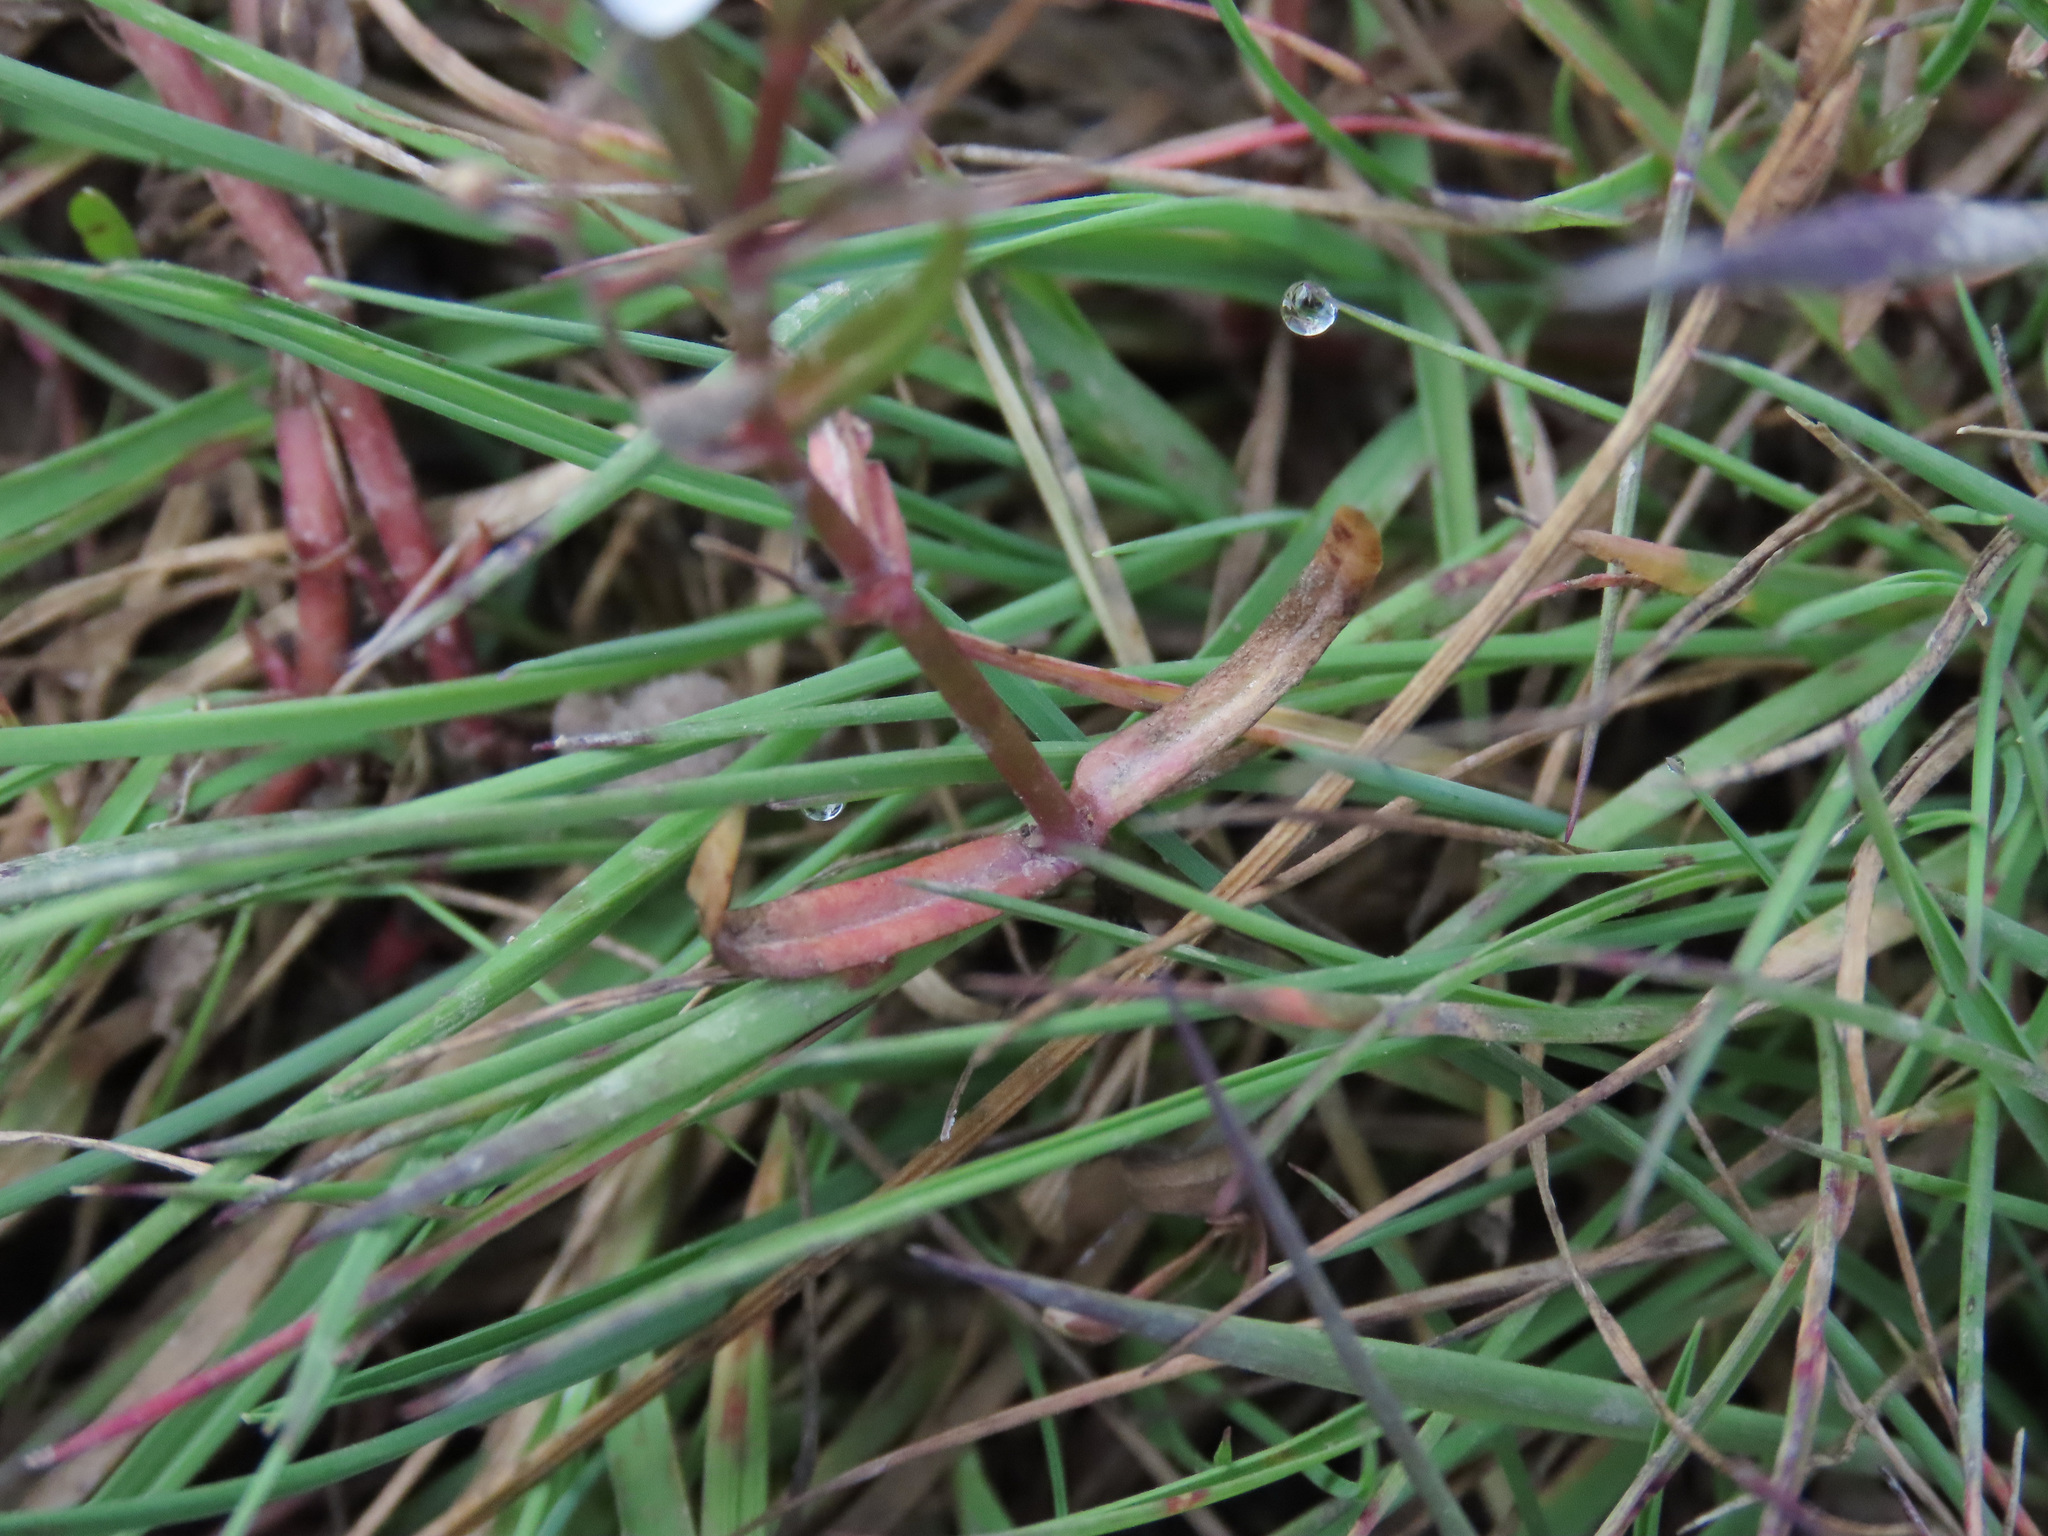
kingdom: Plantae
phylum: Tracheophyta
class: Magnoliopsida
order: Lamiales
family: Plantaginaceae
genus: Veronica
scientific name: Veronica scutellata
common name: Marsh speedwell
